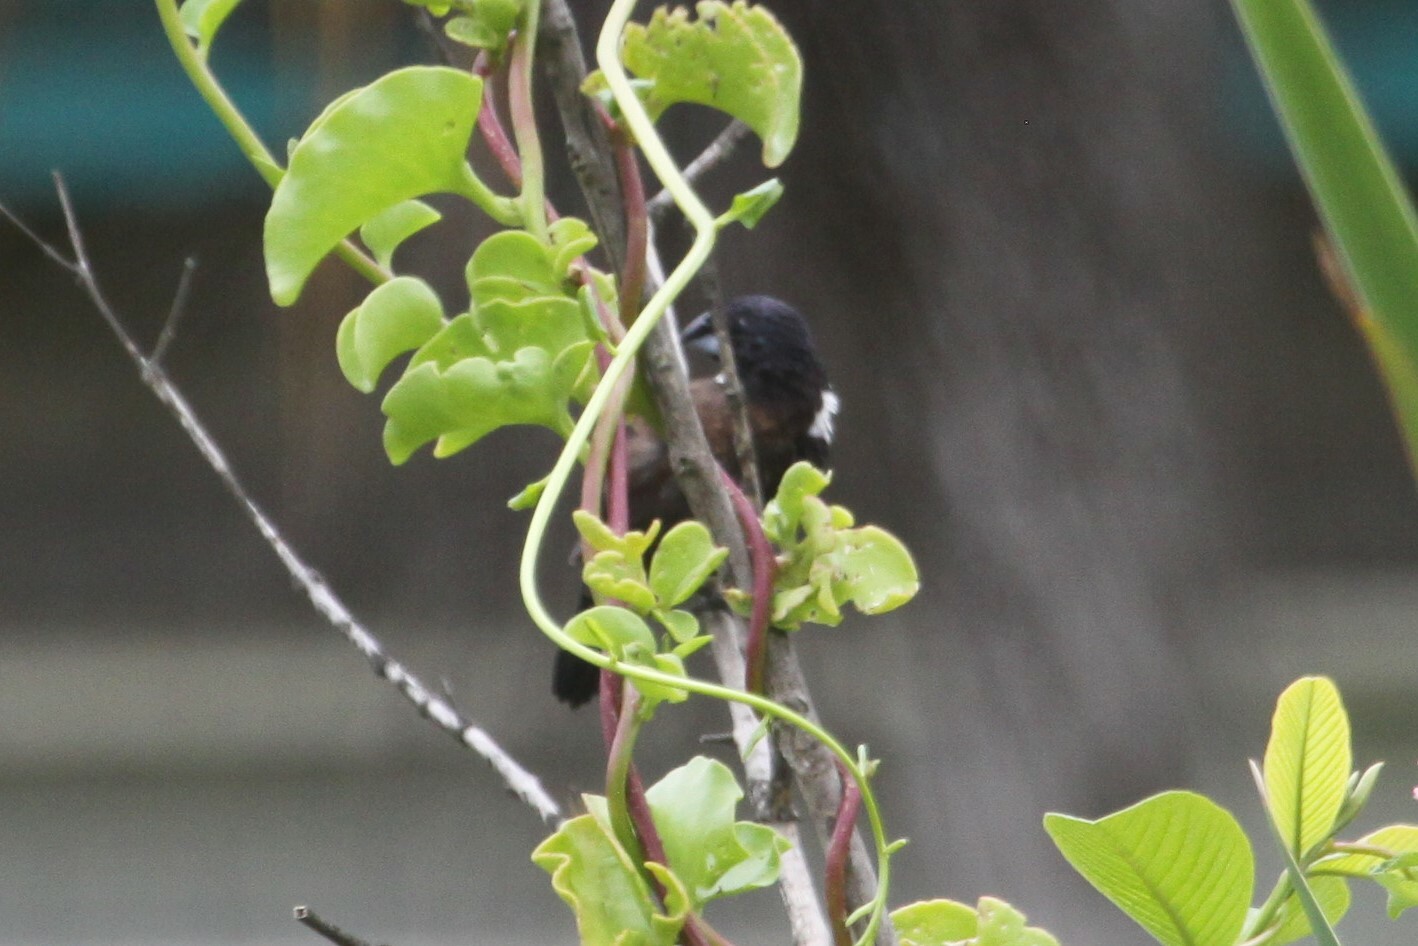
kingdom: Animalia
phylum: Chordata
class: Aves
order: Passeriformes
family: Estrildidae
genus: Lonchura
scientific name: Lonchura fringilloides
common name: Magpie mannikin
